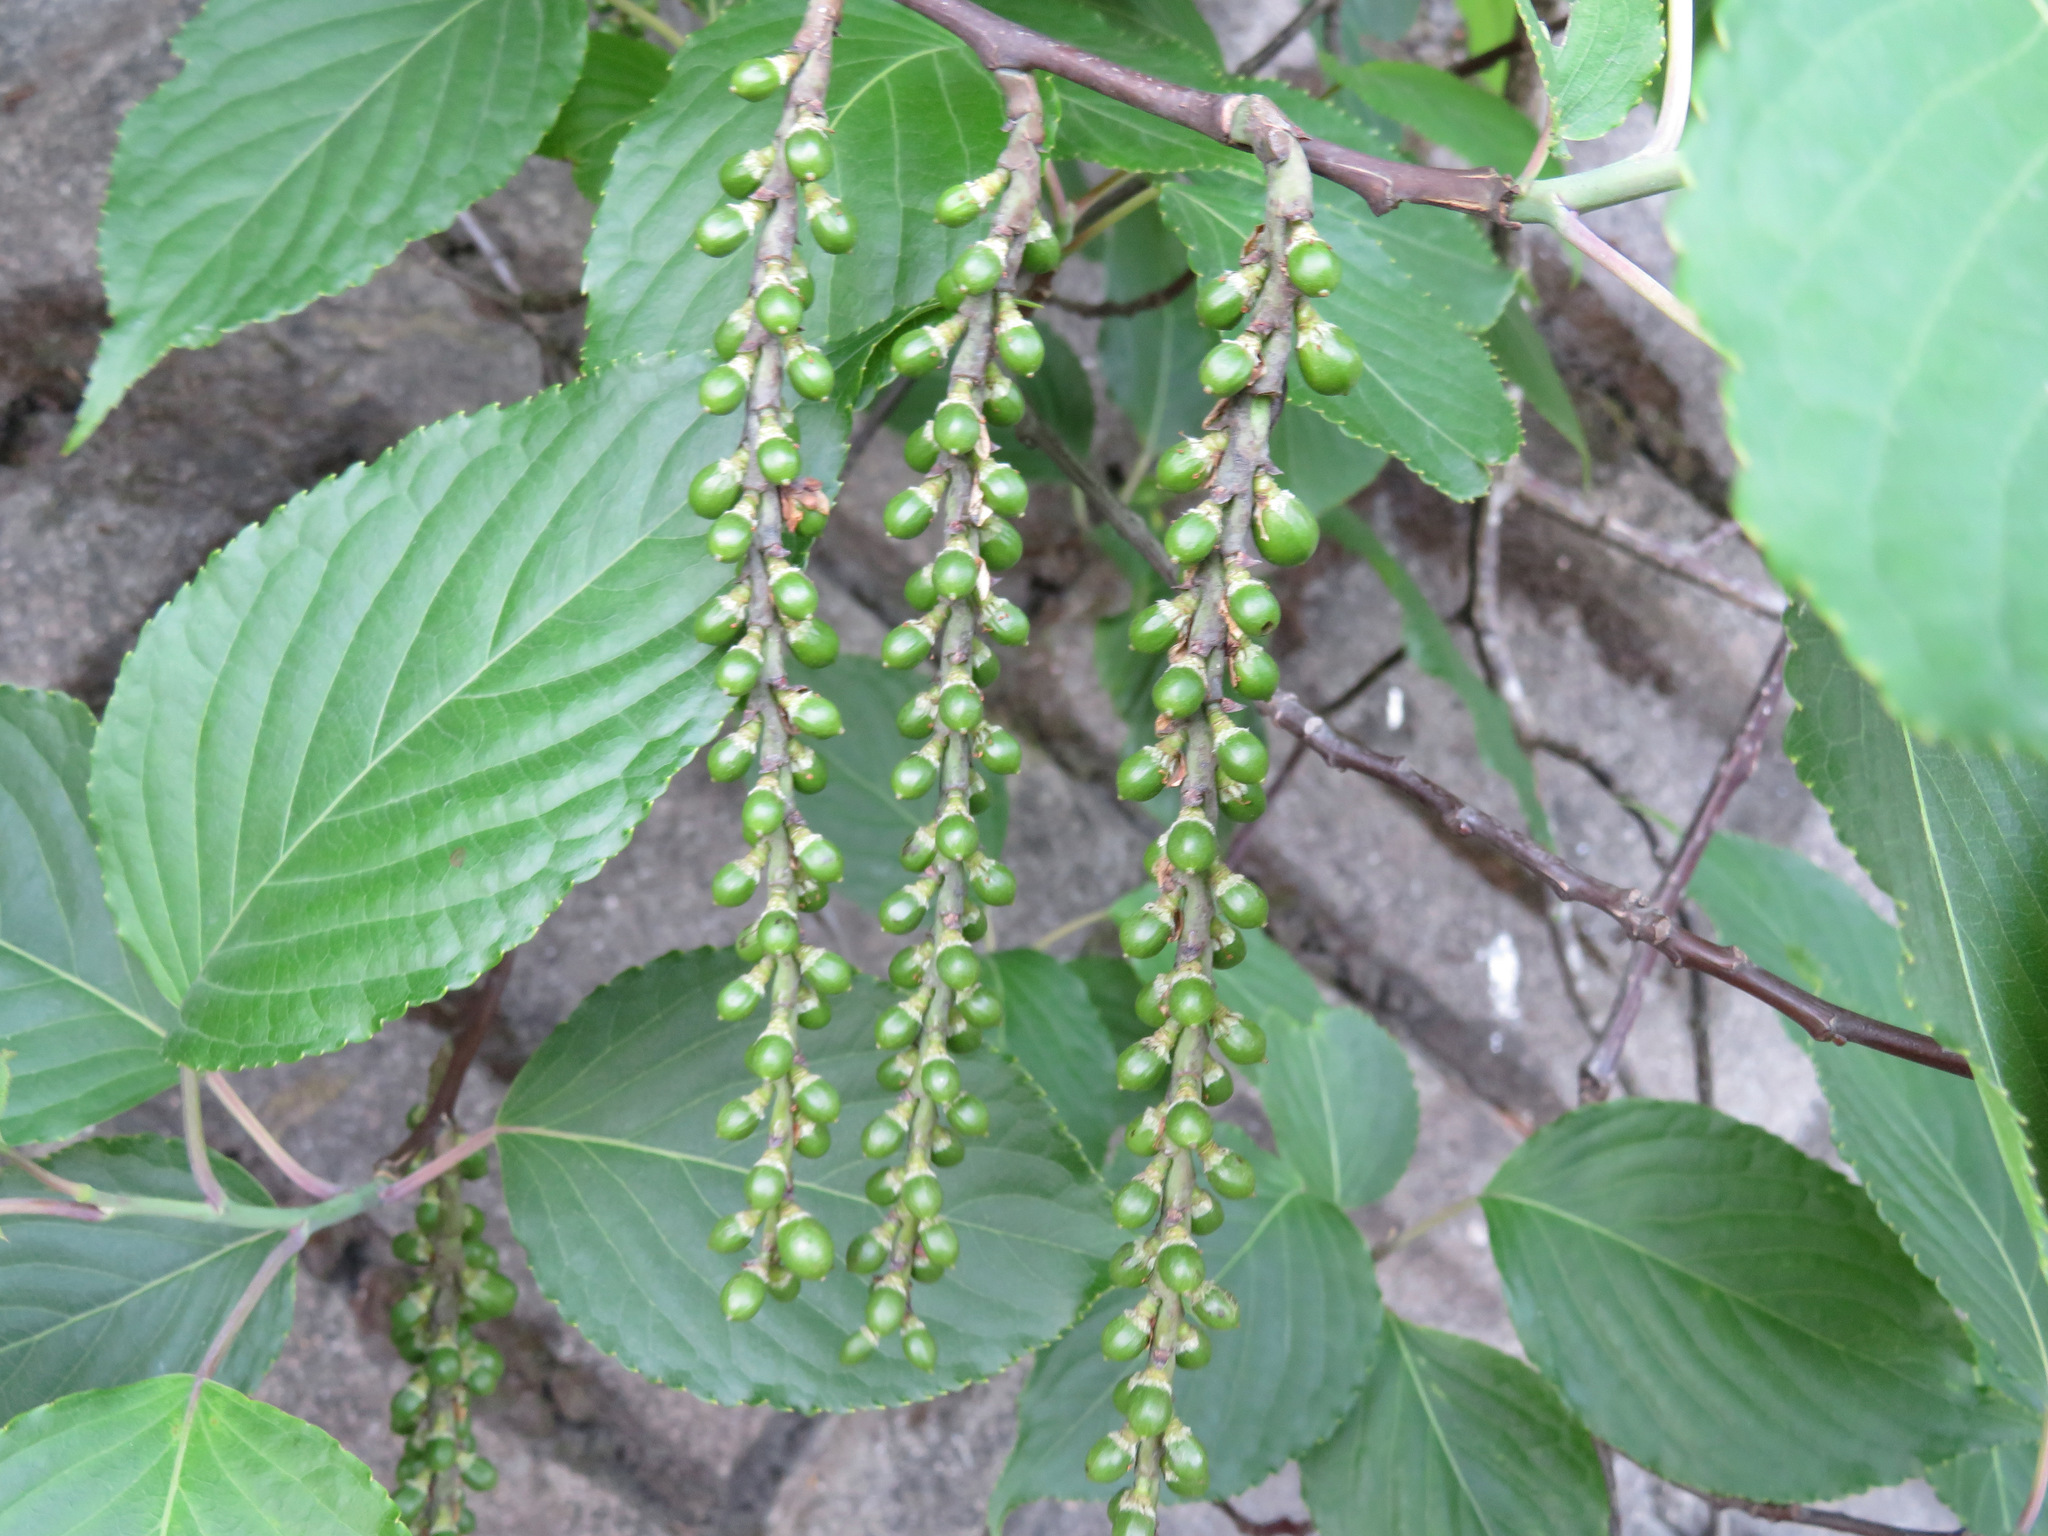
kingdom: Plantae
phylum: Tracheophyta
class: Magnoliopsida
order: Crossosomatales
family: Stachyuraceae
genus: Stachyurus
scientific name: Stachyurus praecox
